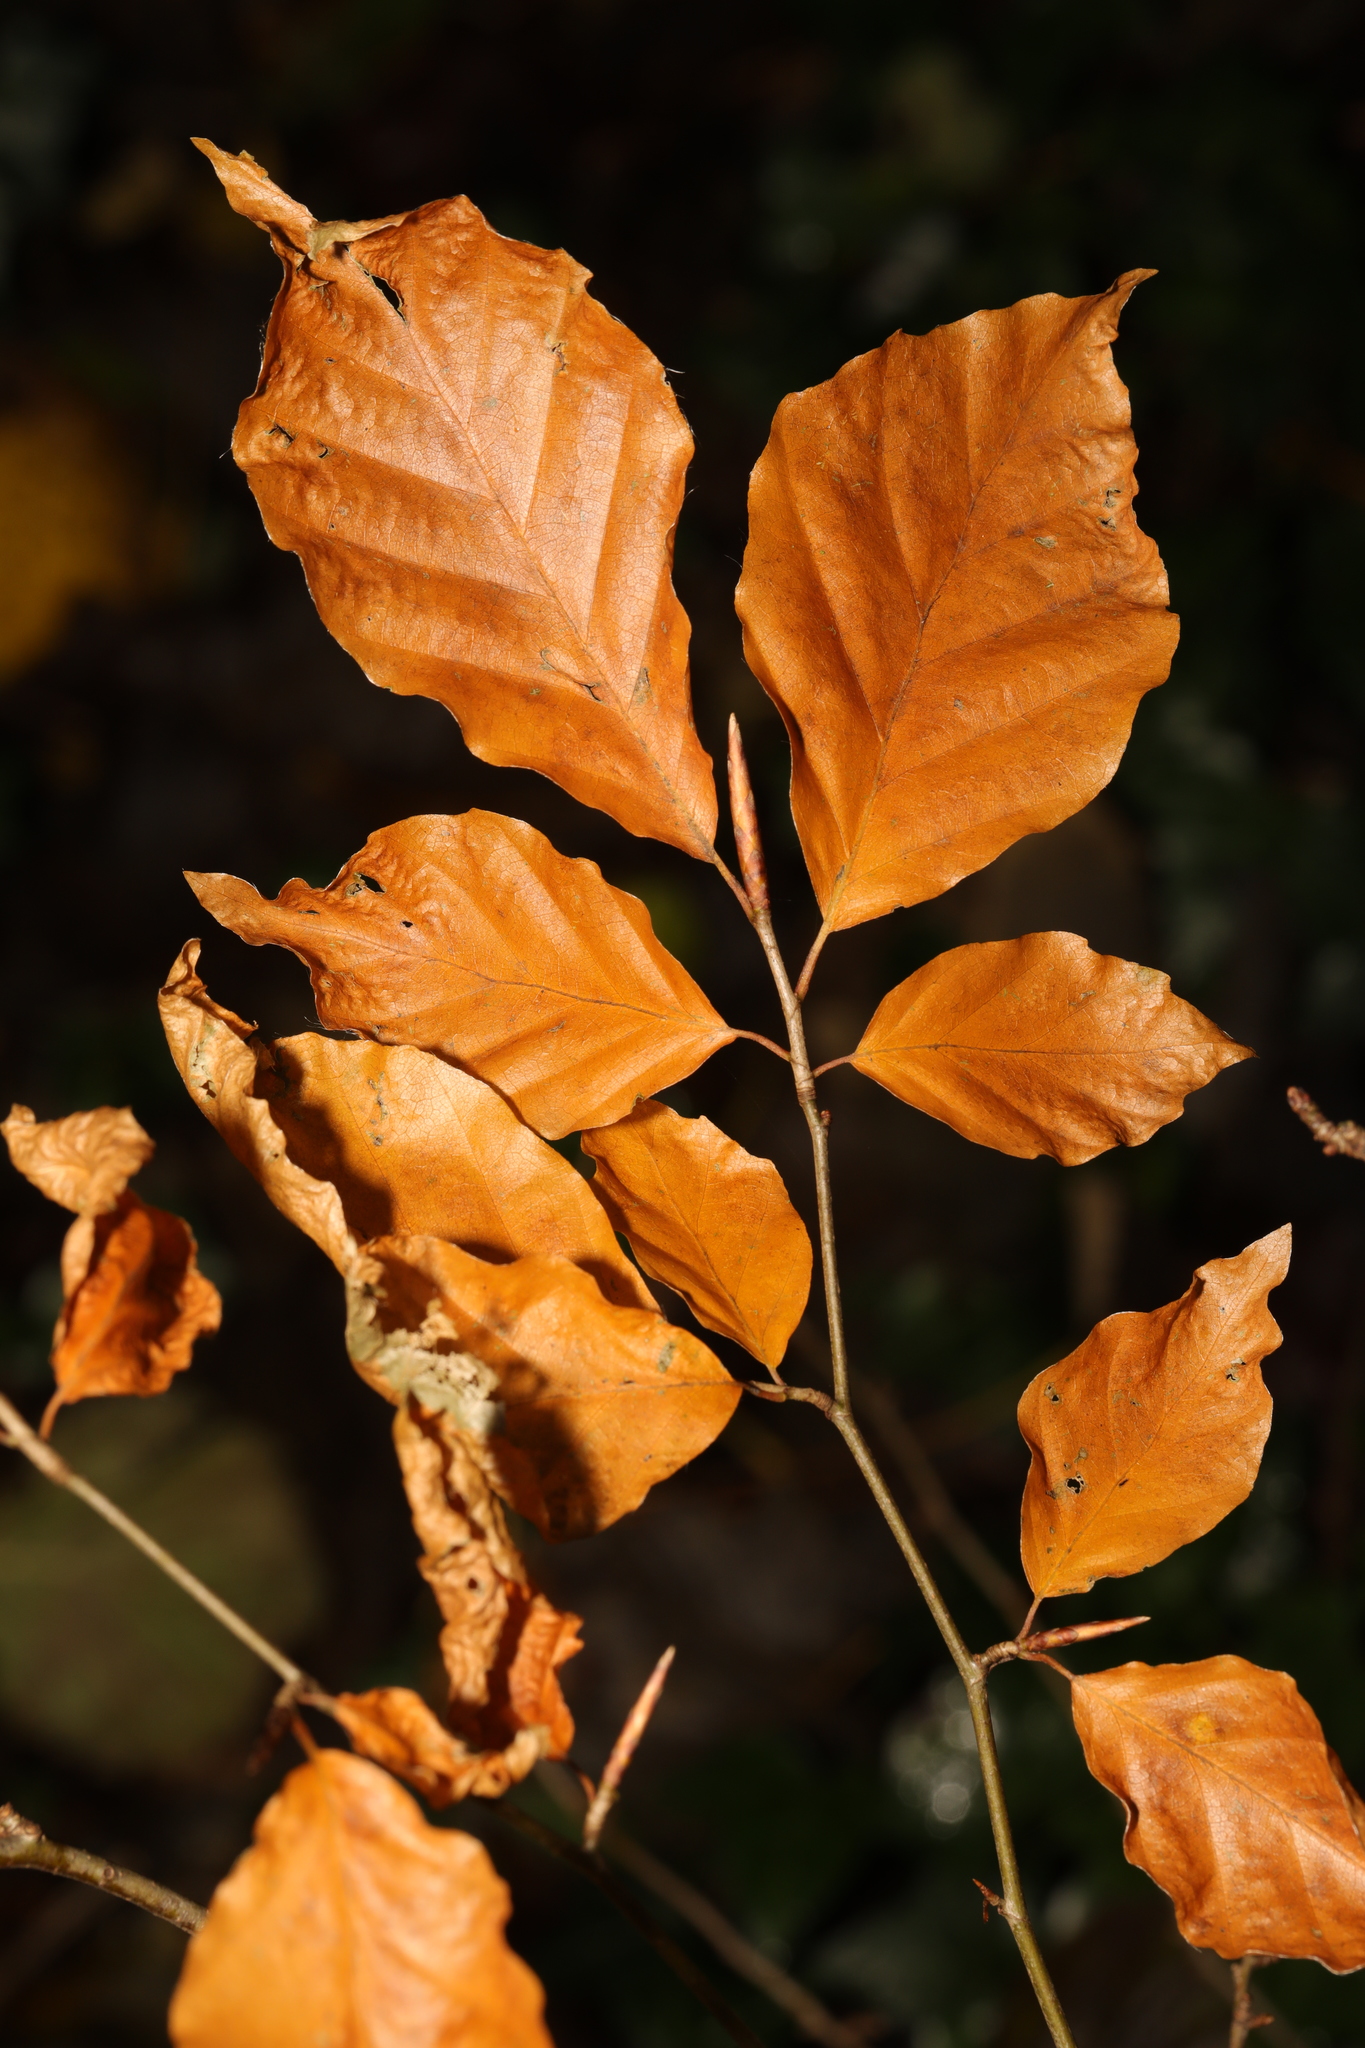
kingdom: Plantae
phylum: Tracheophyta
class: Magnoliopsida
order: Fagales
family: Fagaceae
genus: Fagus
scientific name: Fagus sylvatica
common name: Beech
